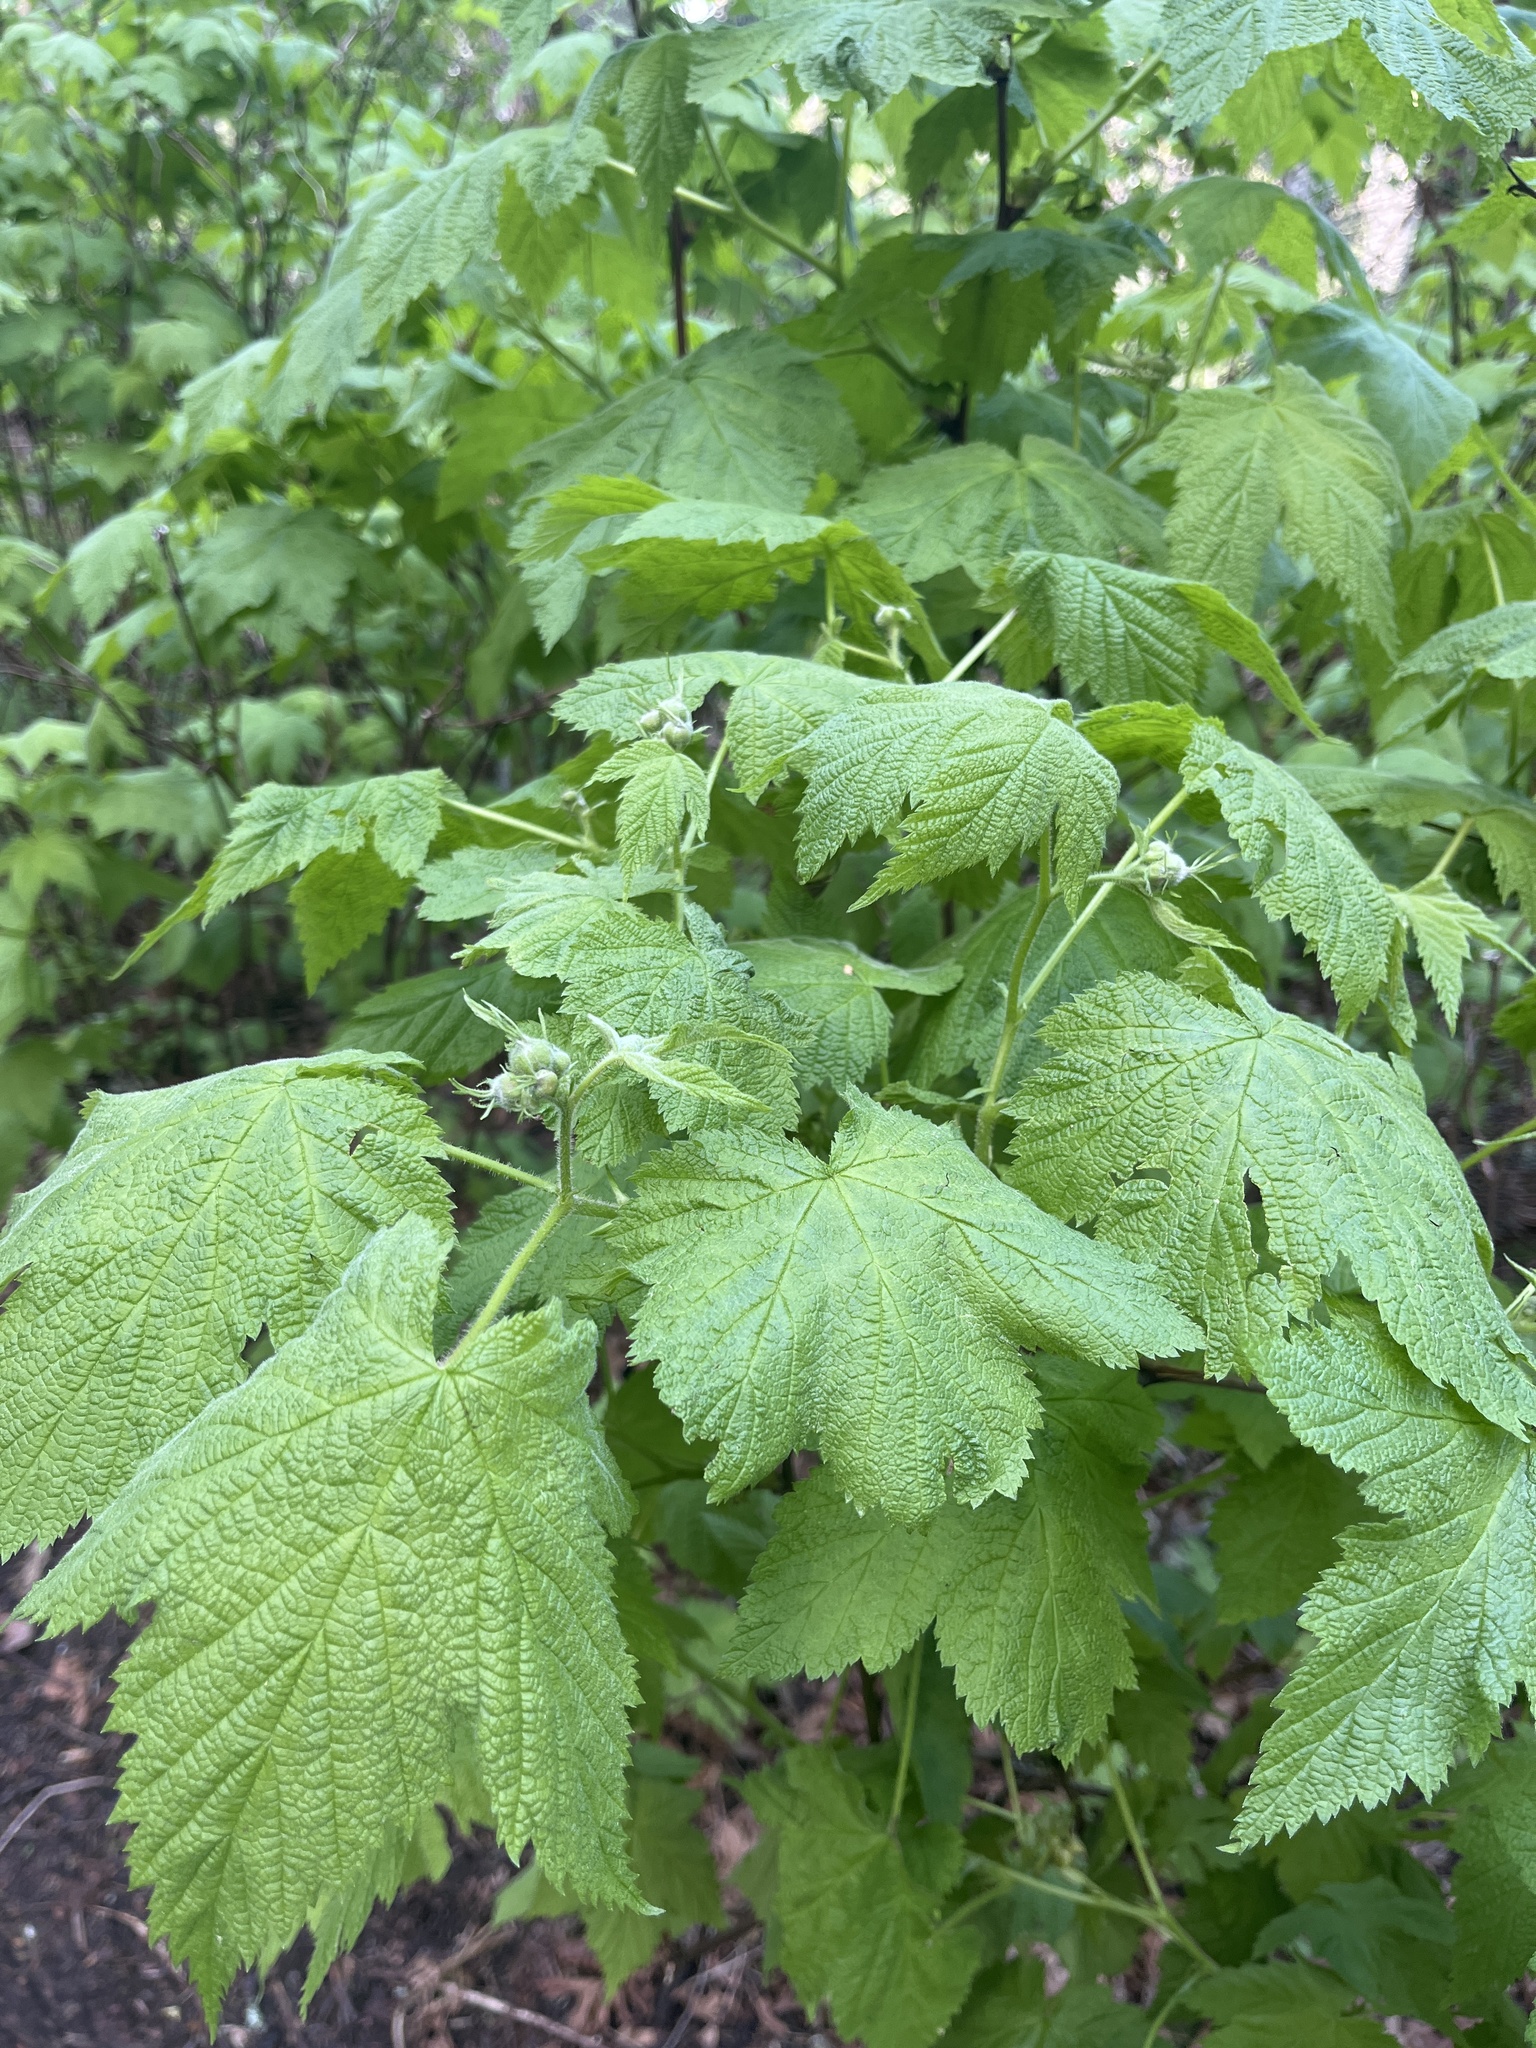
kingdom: Plantae
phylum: Tracheophyta
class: Magnoliopsida
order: Rosales
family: Rosaceae
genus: Rubus
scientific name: Rubus parviflorus
